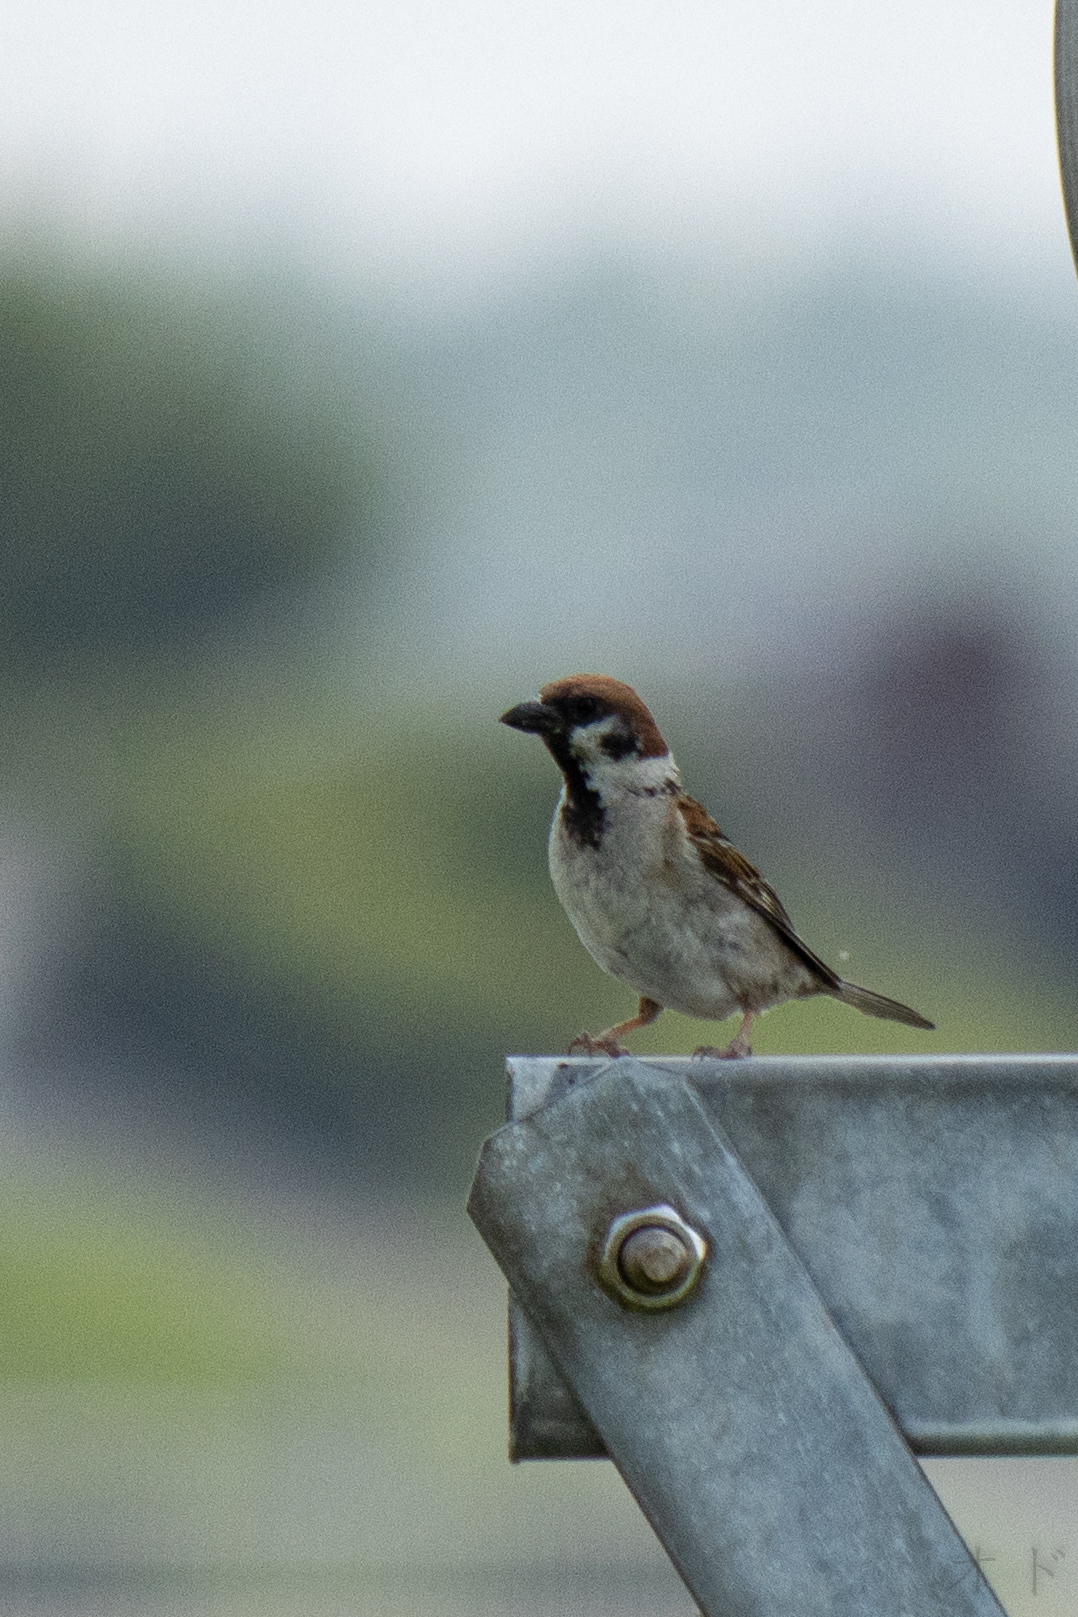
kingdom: Animalia
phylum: Chordata
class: Aves
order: Passeriformes
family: Passeridae
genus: Passer
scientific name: Passer montanus
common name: Eurasian tree sparrow
